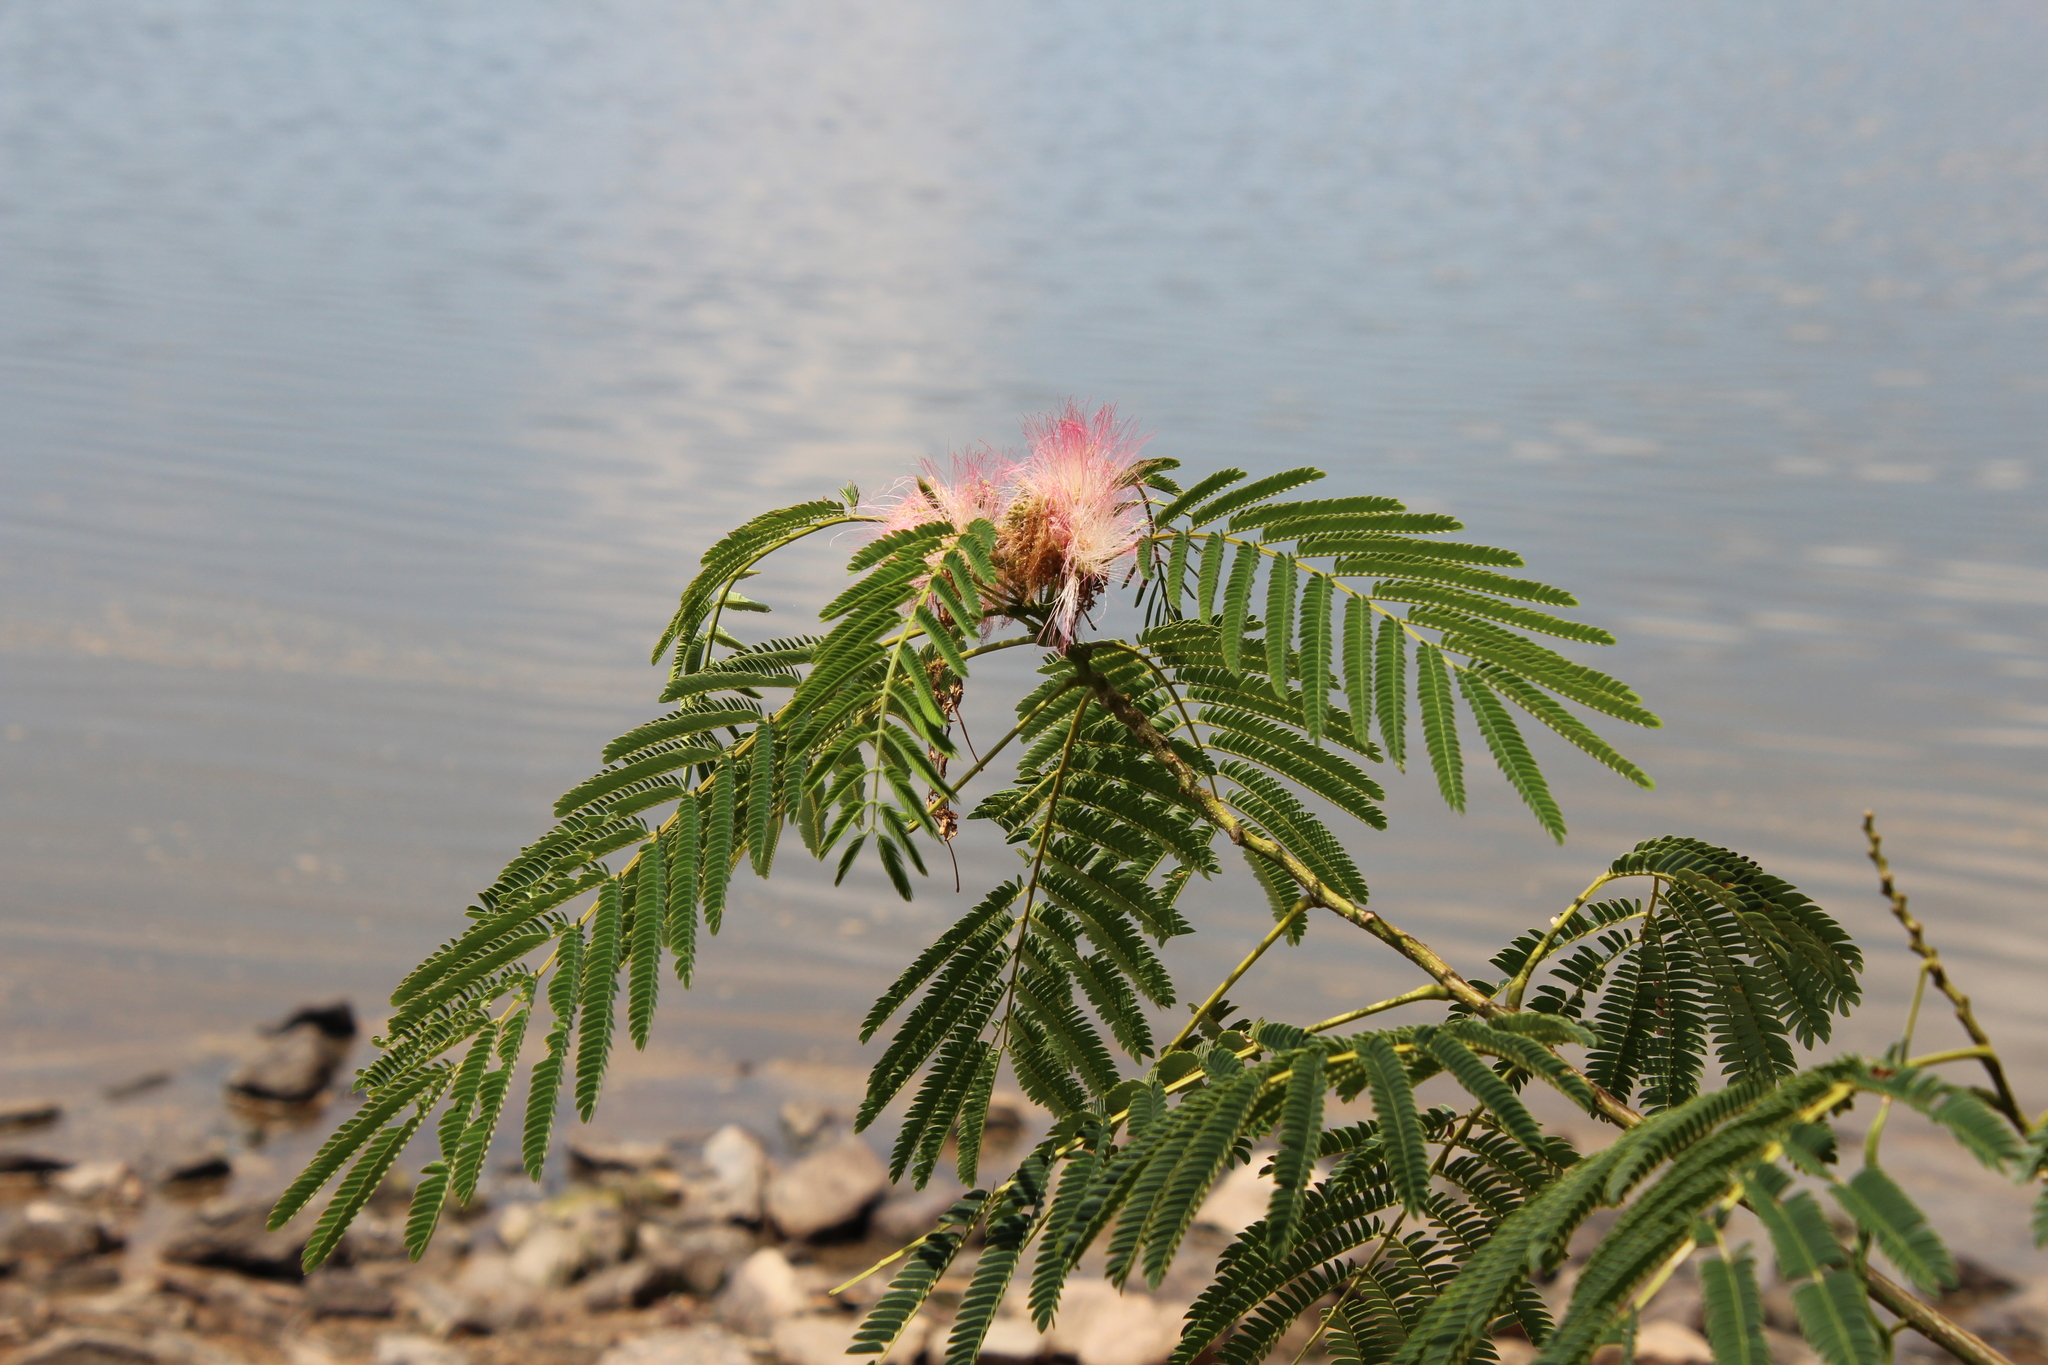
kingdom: Plantae
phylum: Tracheophyta
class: Magnoliopsida
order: Fabales
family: Fabaceae
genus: Albizia
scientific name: Albizia julibrissin
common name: Silktree
